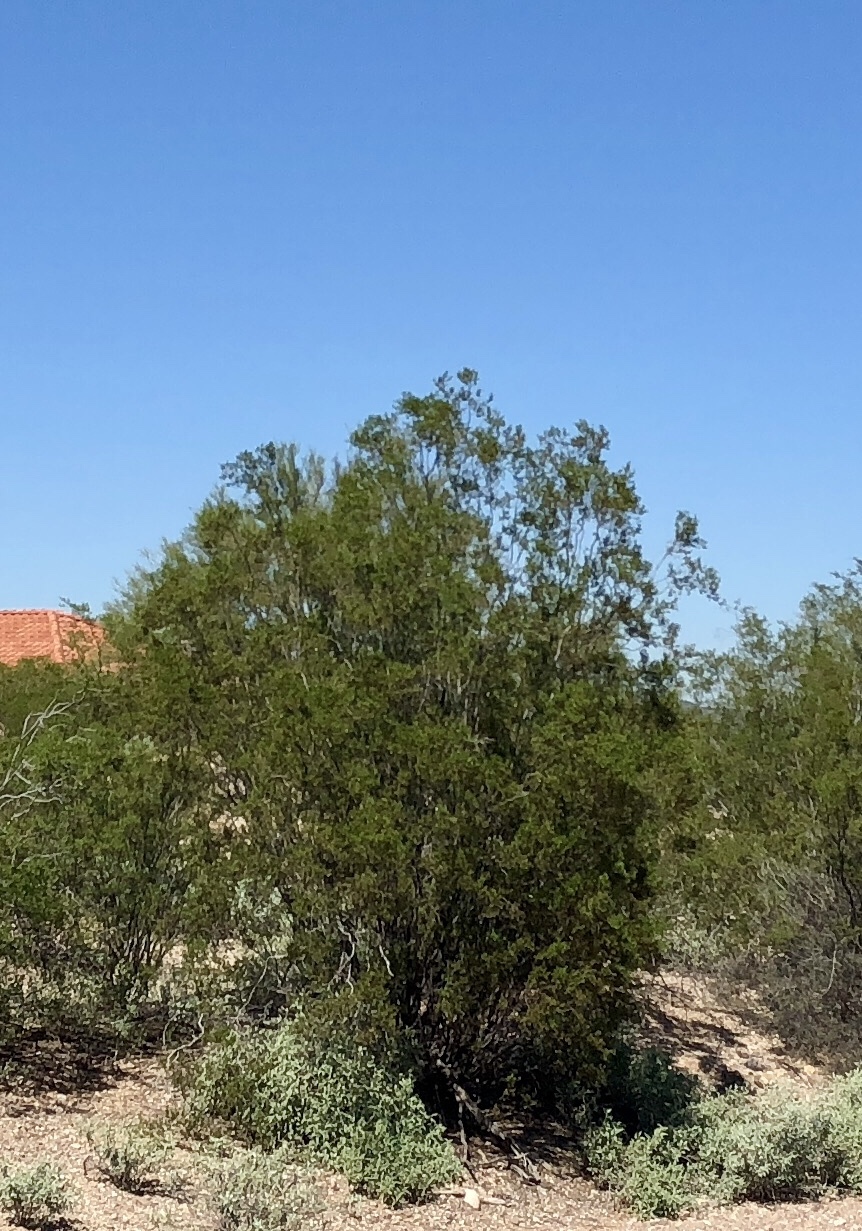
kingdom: Plantae
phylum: Tracheophyta
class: Magnoliopsida
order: Zygophyllales
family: Zygophyllaceae
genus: Larrea
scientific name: Larrea tridentata
